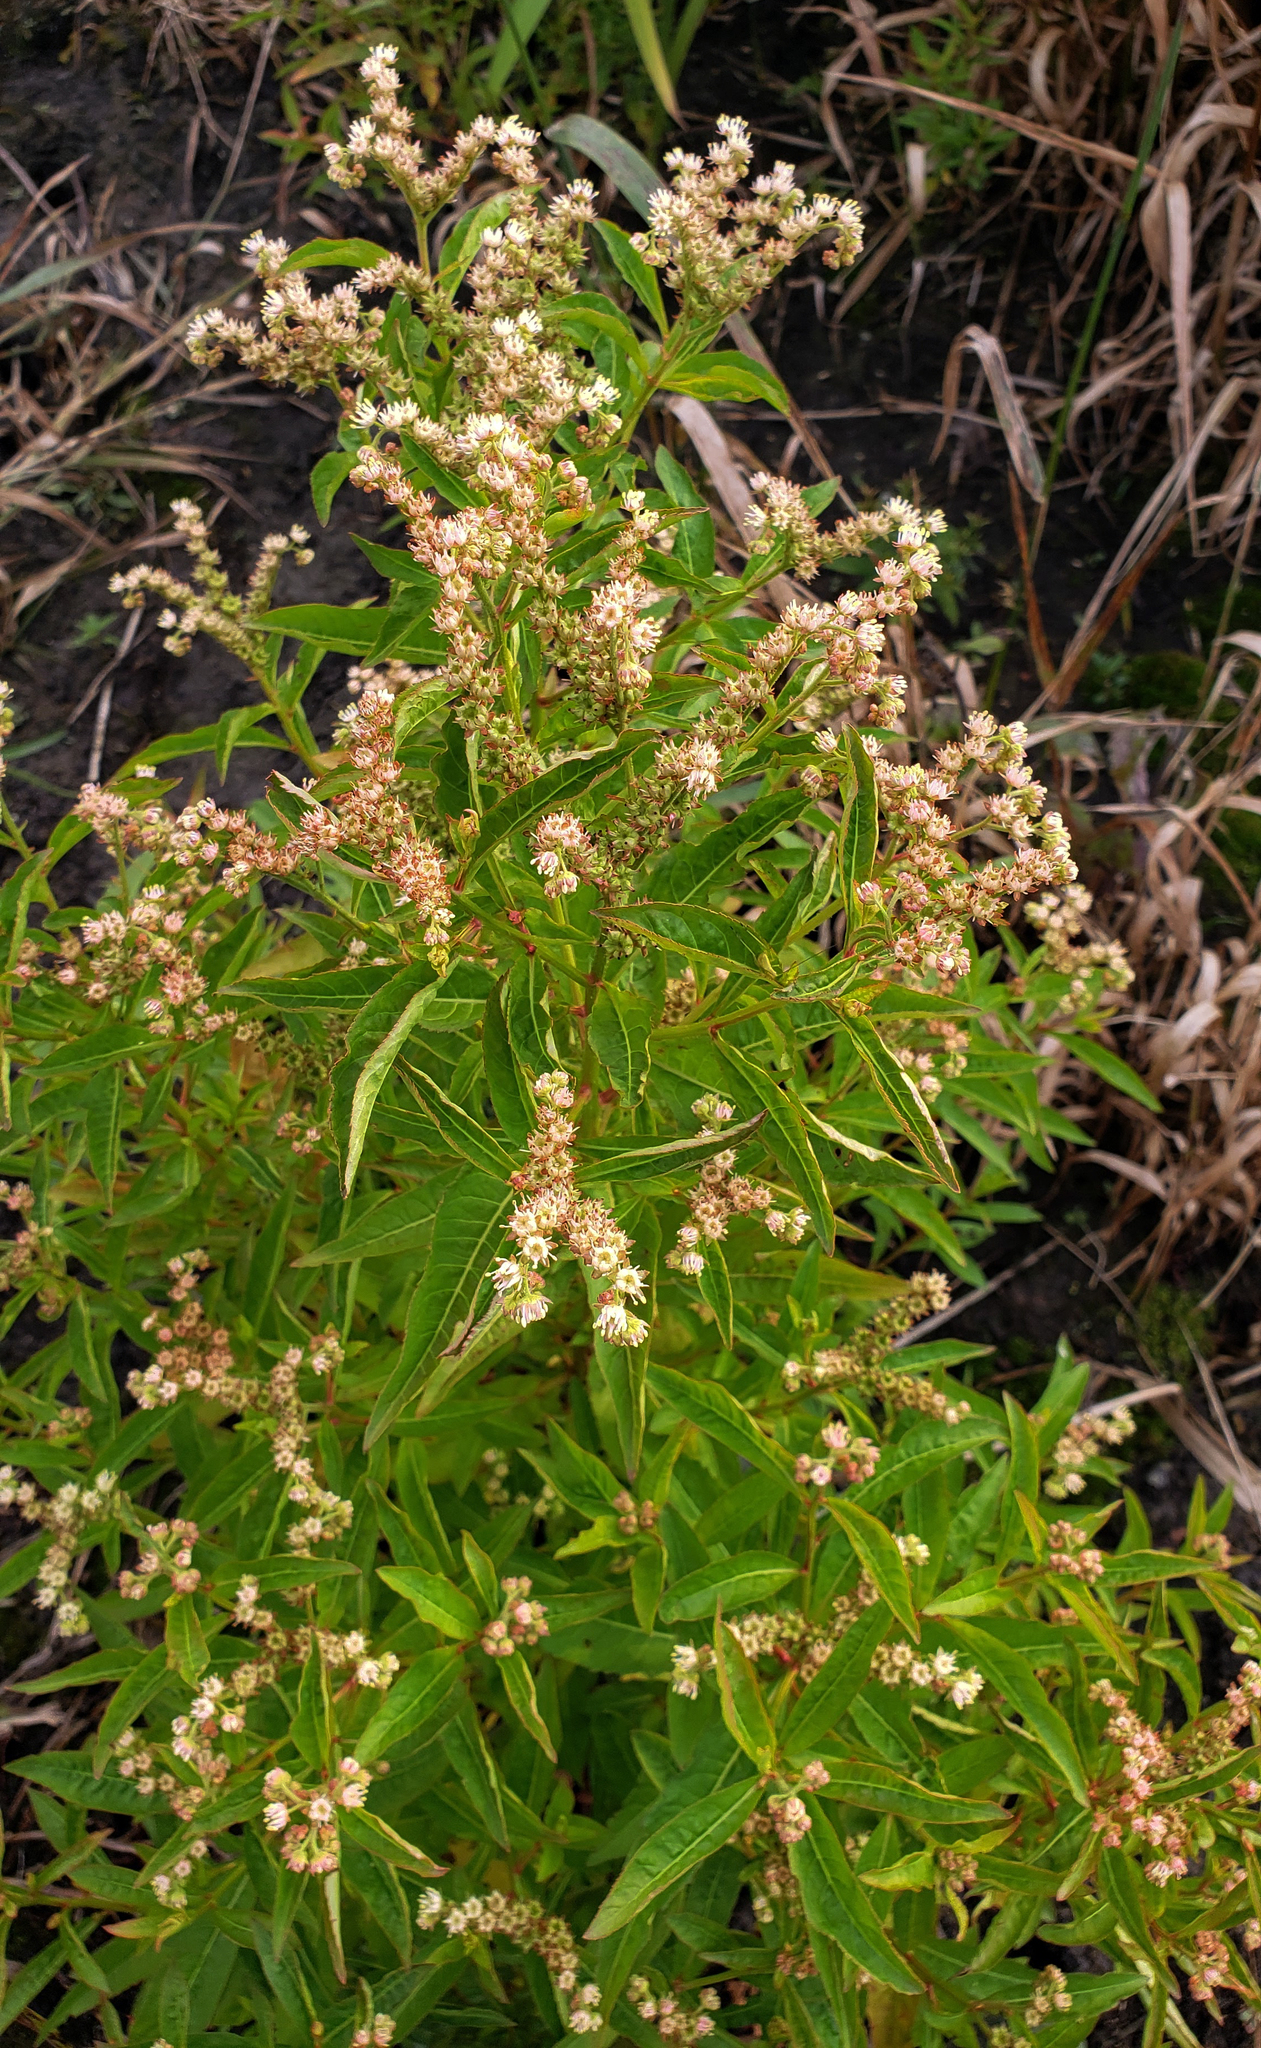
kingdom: Plantae
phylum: Tracheophyta
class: Magnoliopsida
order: Saxifragales
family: Penthoraceae
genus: Penthorum
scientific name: Penthorum sedoides
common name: Ditch stonecrop
